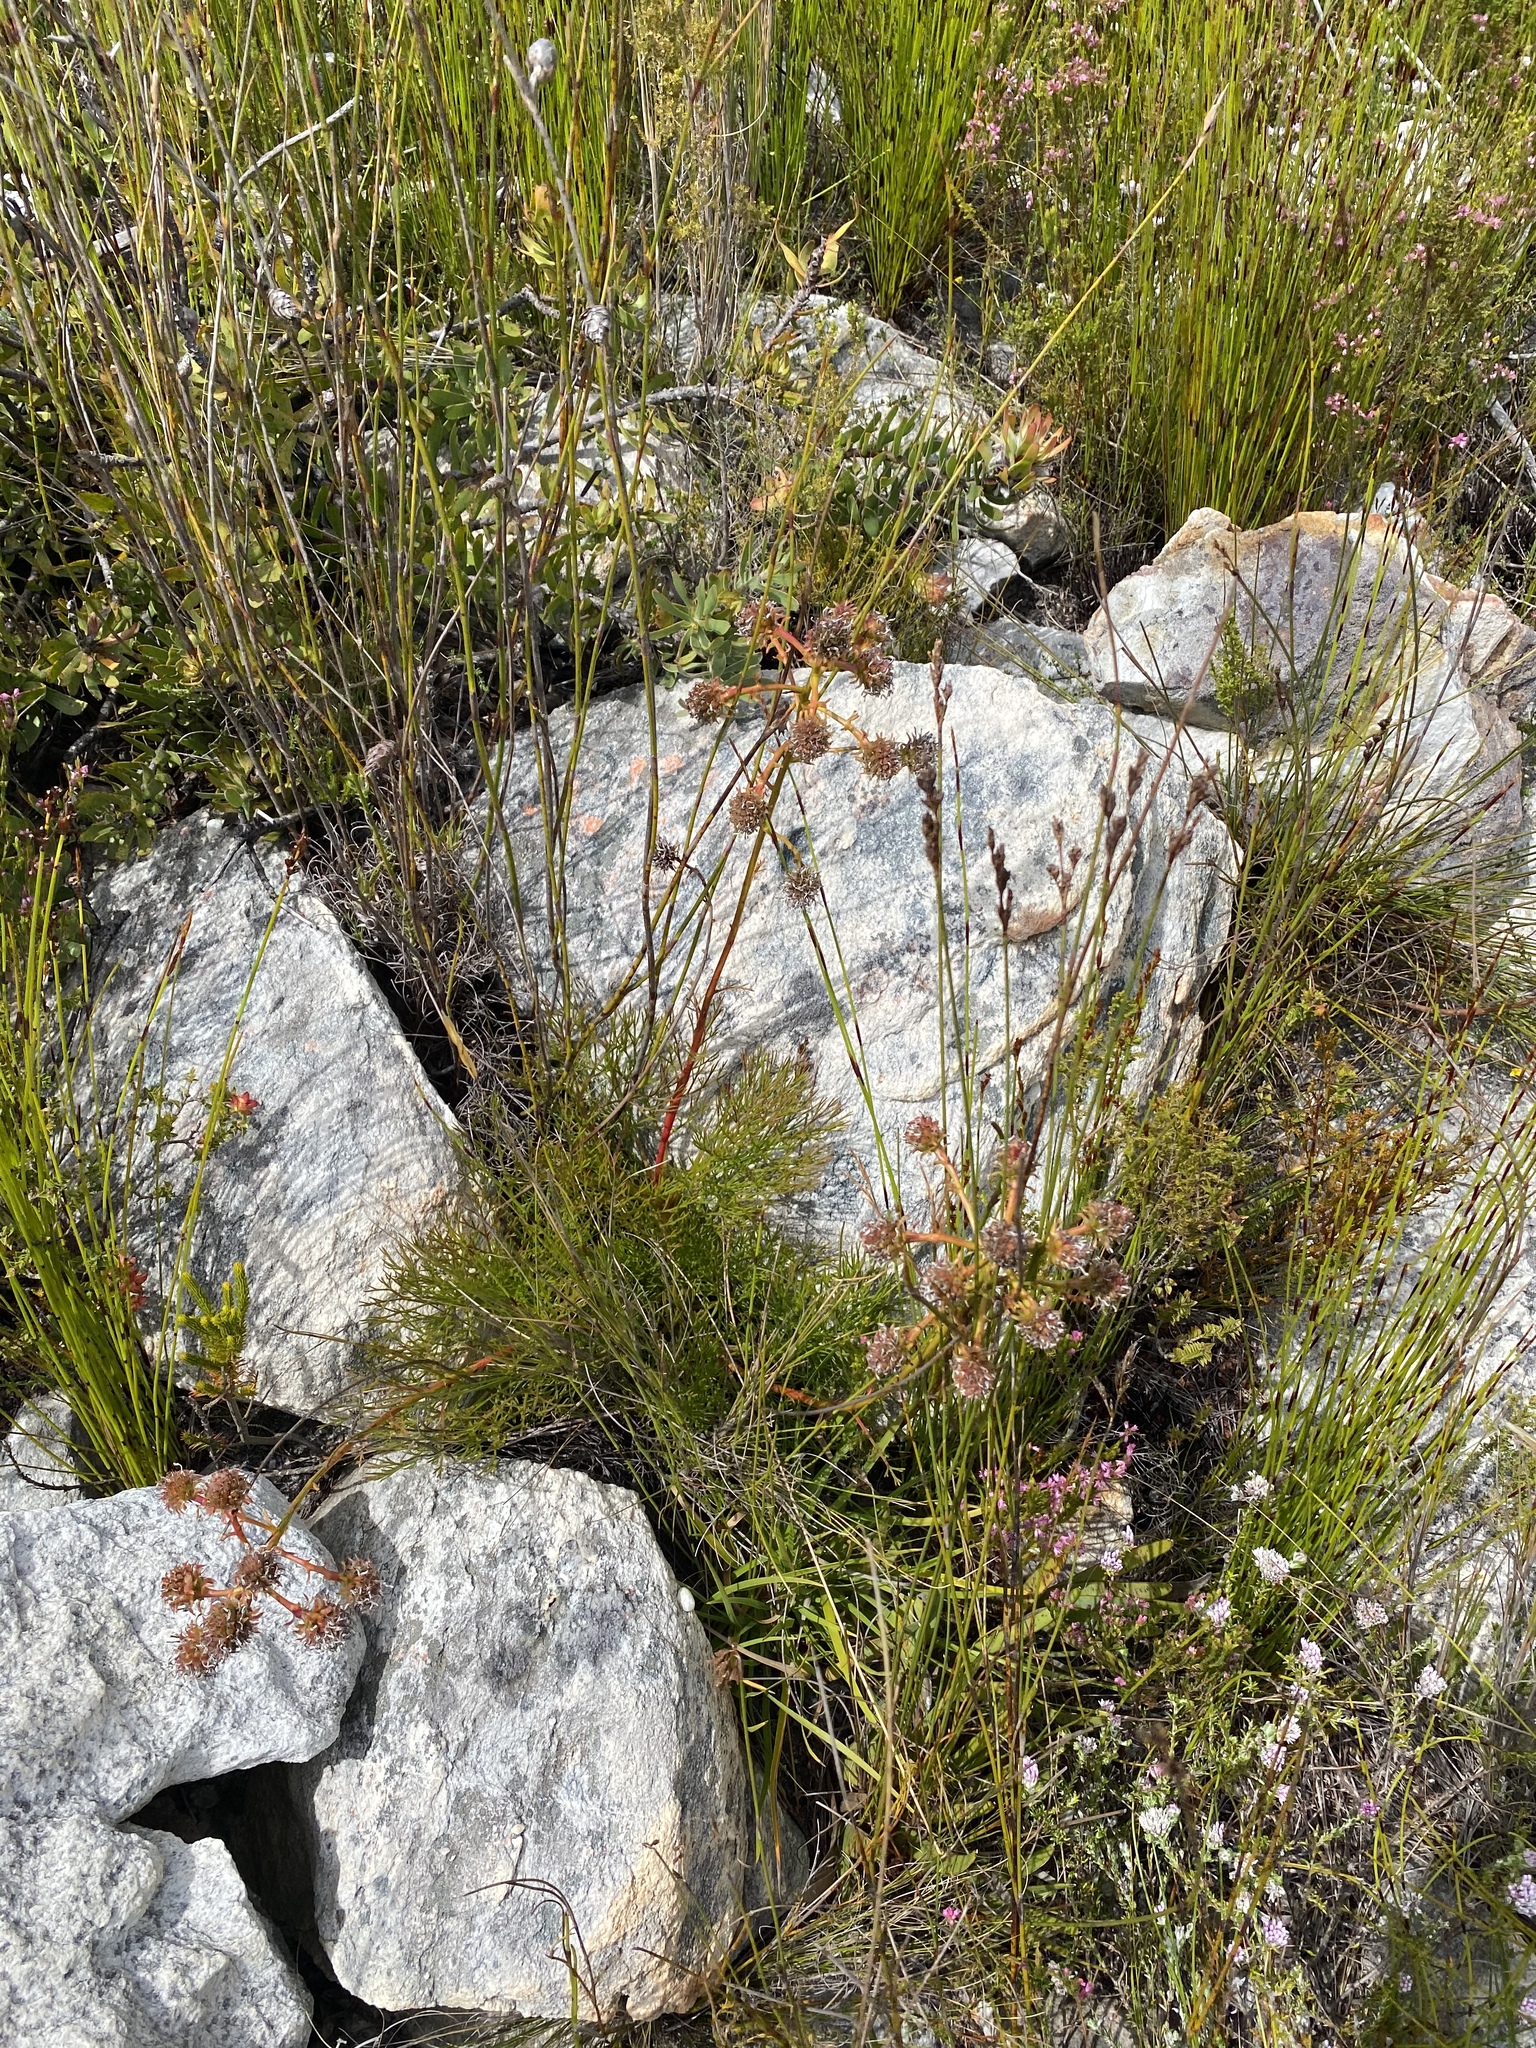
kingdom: Plantae
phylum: Tracheophyta
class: Magnoliopsida
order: Proteales
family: Proteaceae
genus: Serruria
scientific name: Serruria elongata
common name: Long-stalk spiderhead
